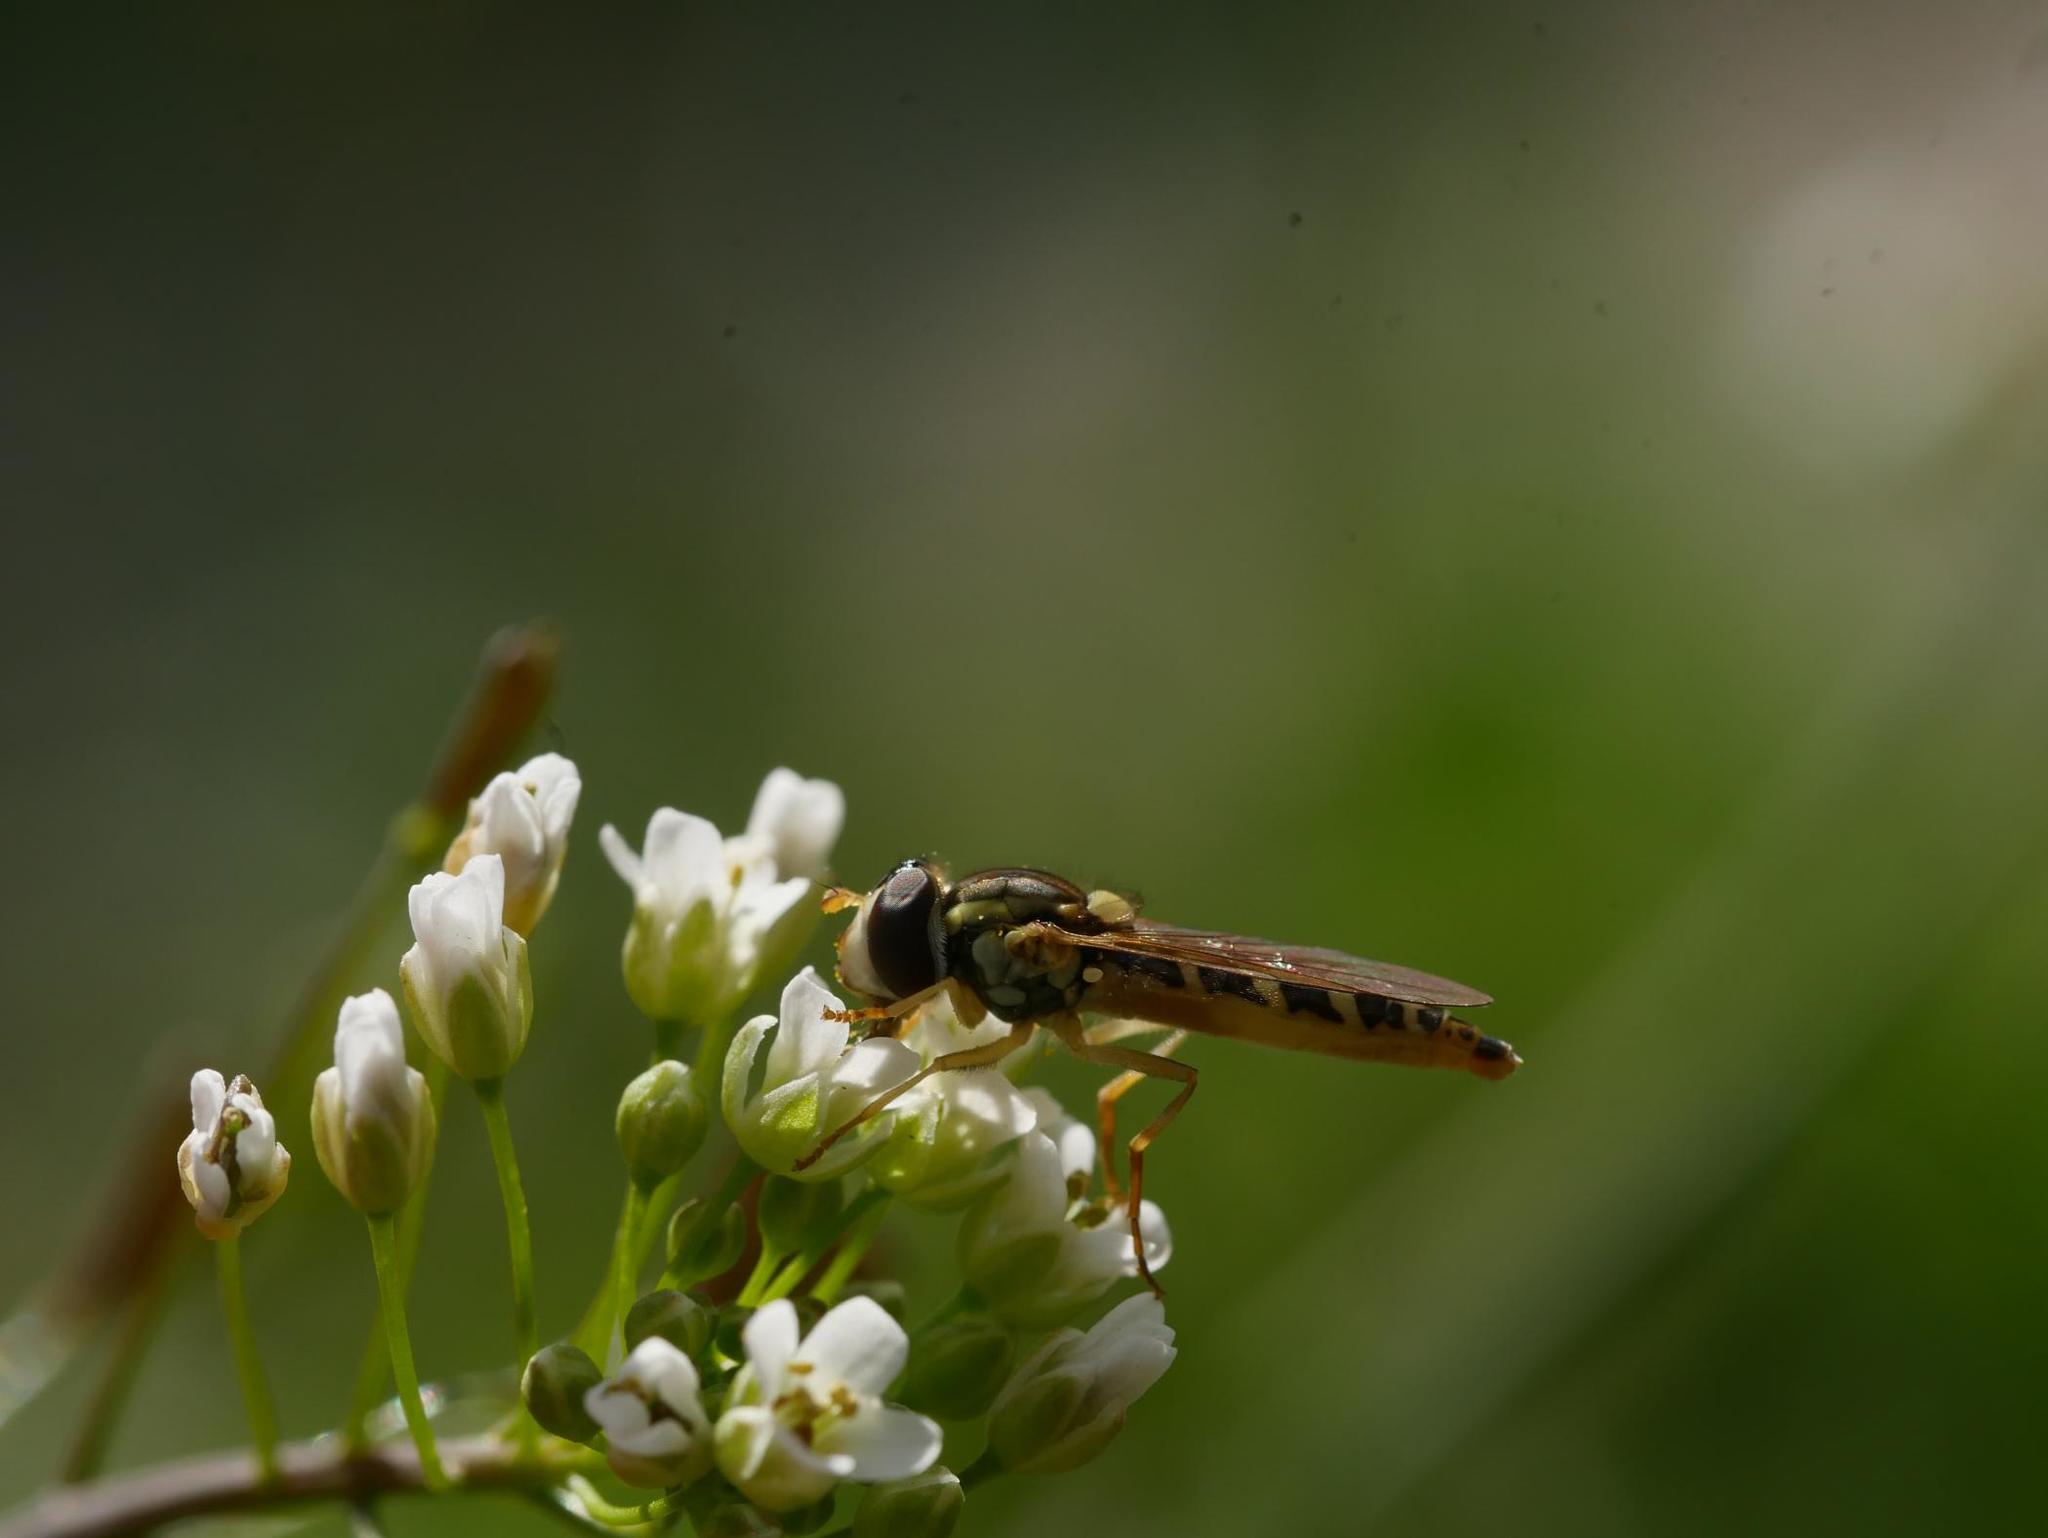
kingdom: Animalia
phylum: Arthropoda
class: Insecta
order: Diptera
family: Syrphidae
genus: Sphaerophoria
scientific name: Sphaerophoria
